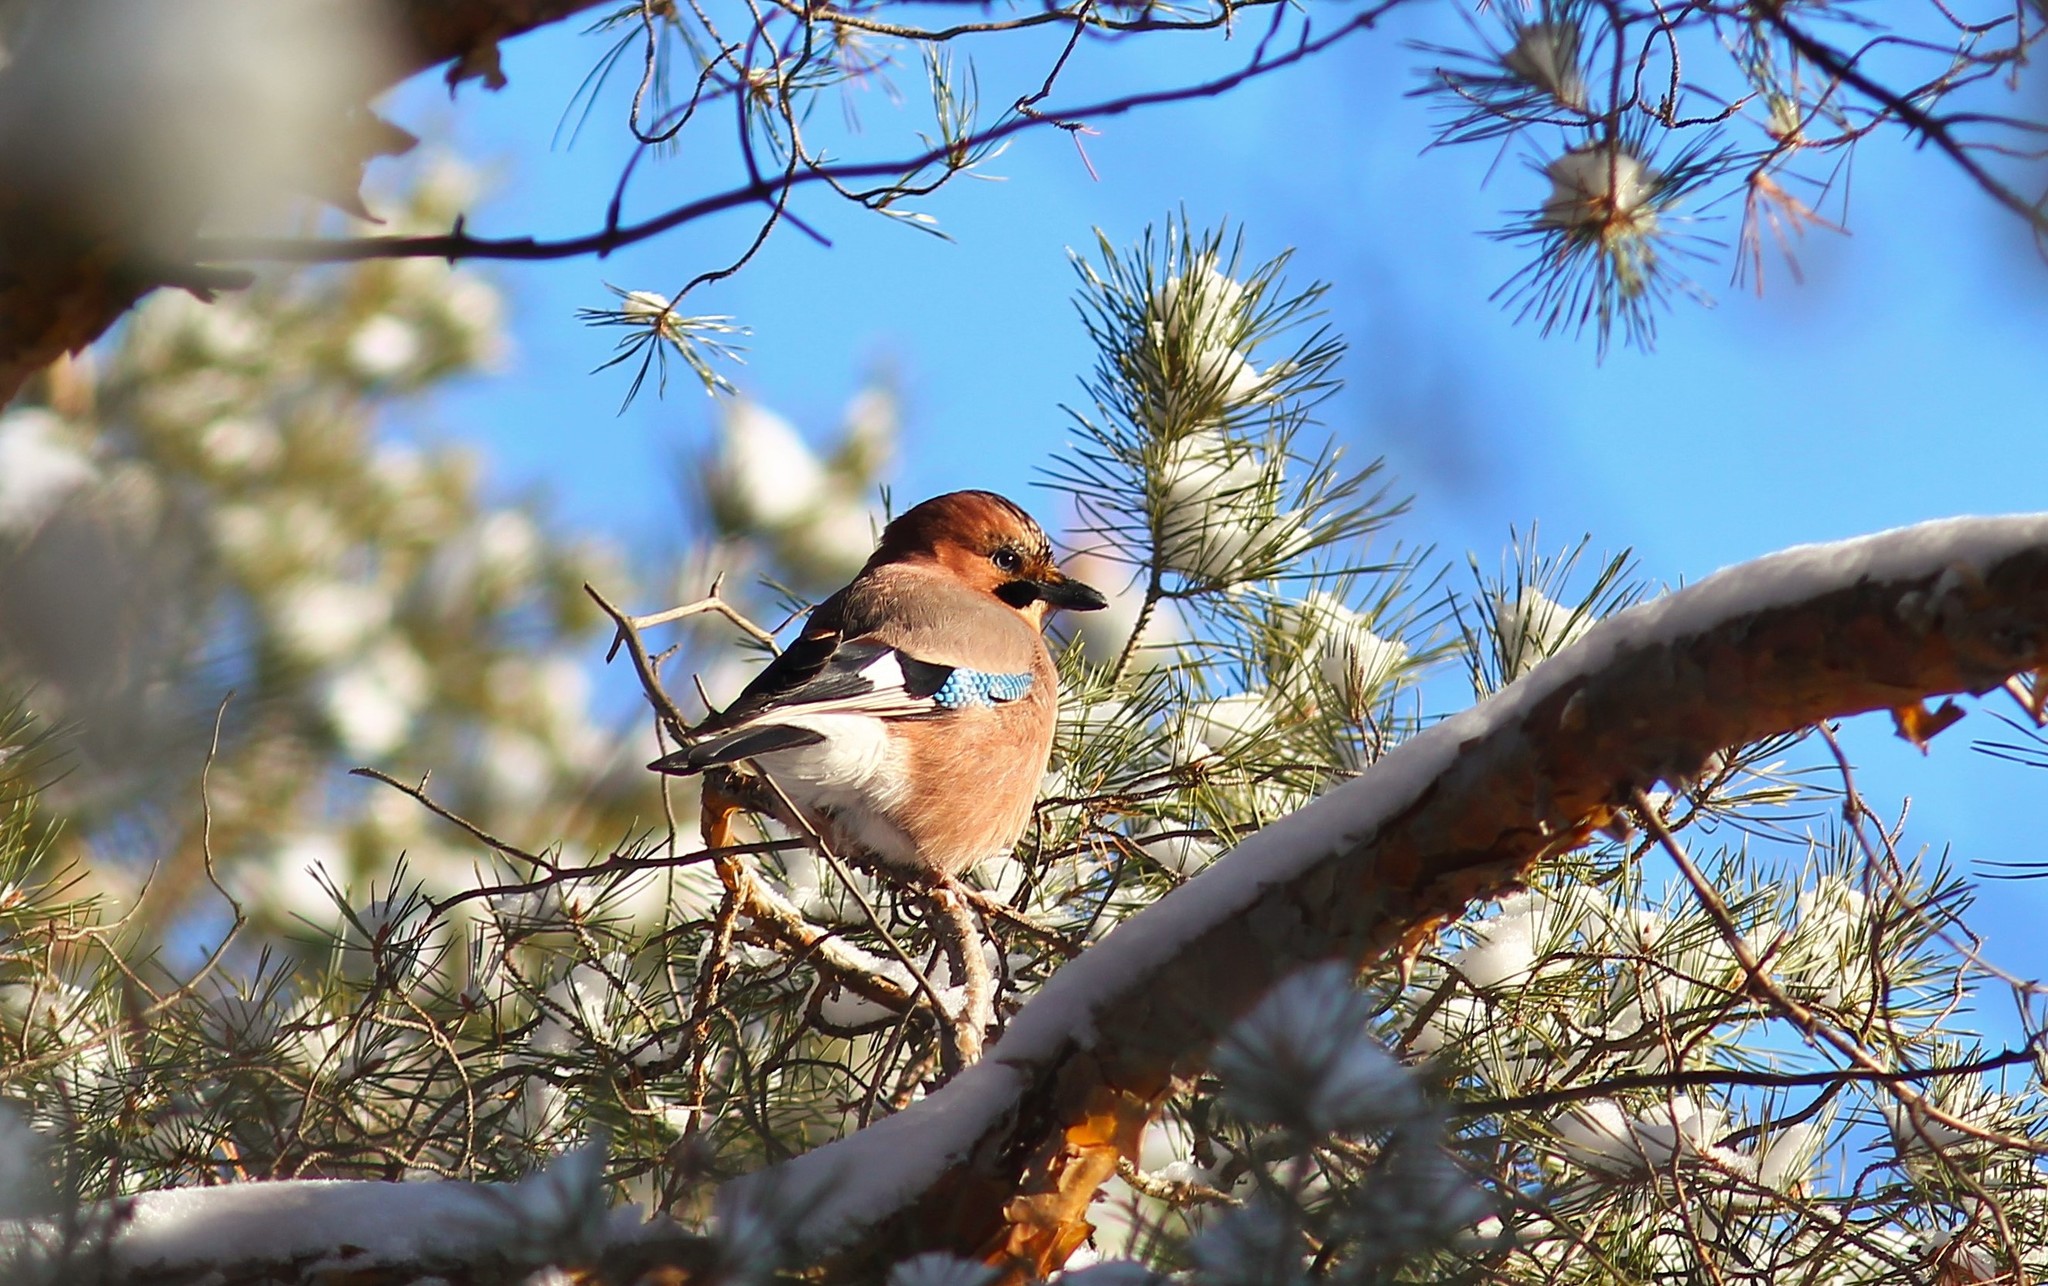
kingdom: Animalia
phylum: Chordata
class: Aves
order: Passeriformes
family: Corvidae
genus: Garrulus
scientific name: Garrulus glandarius
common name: Eurasian jay
